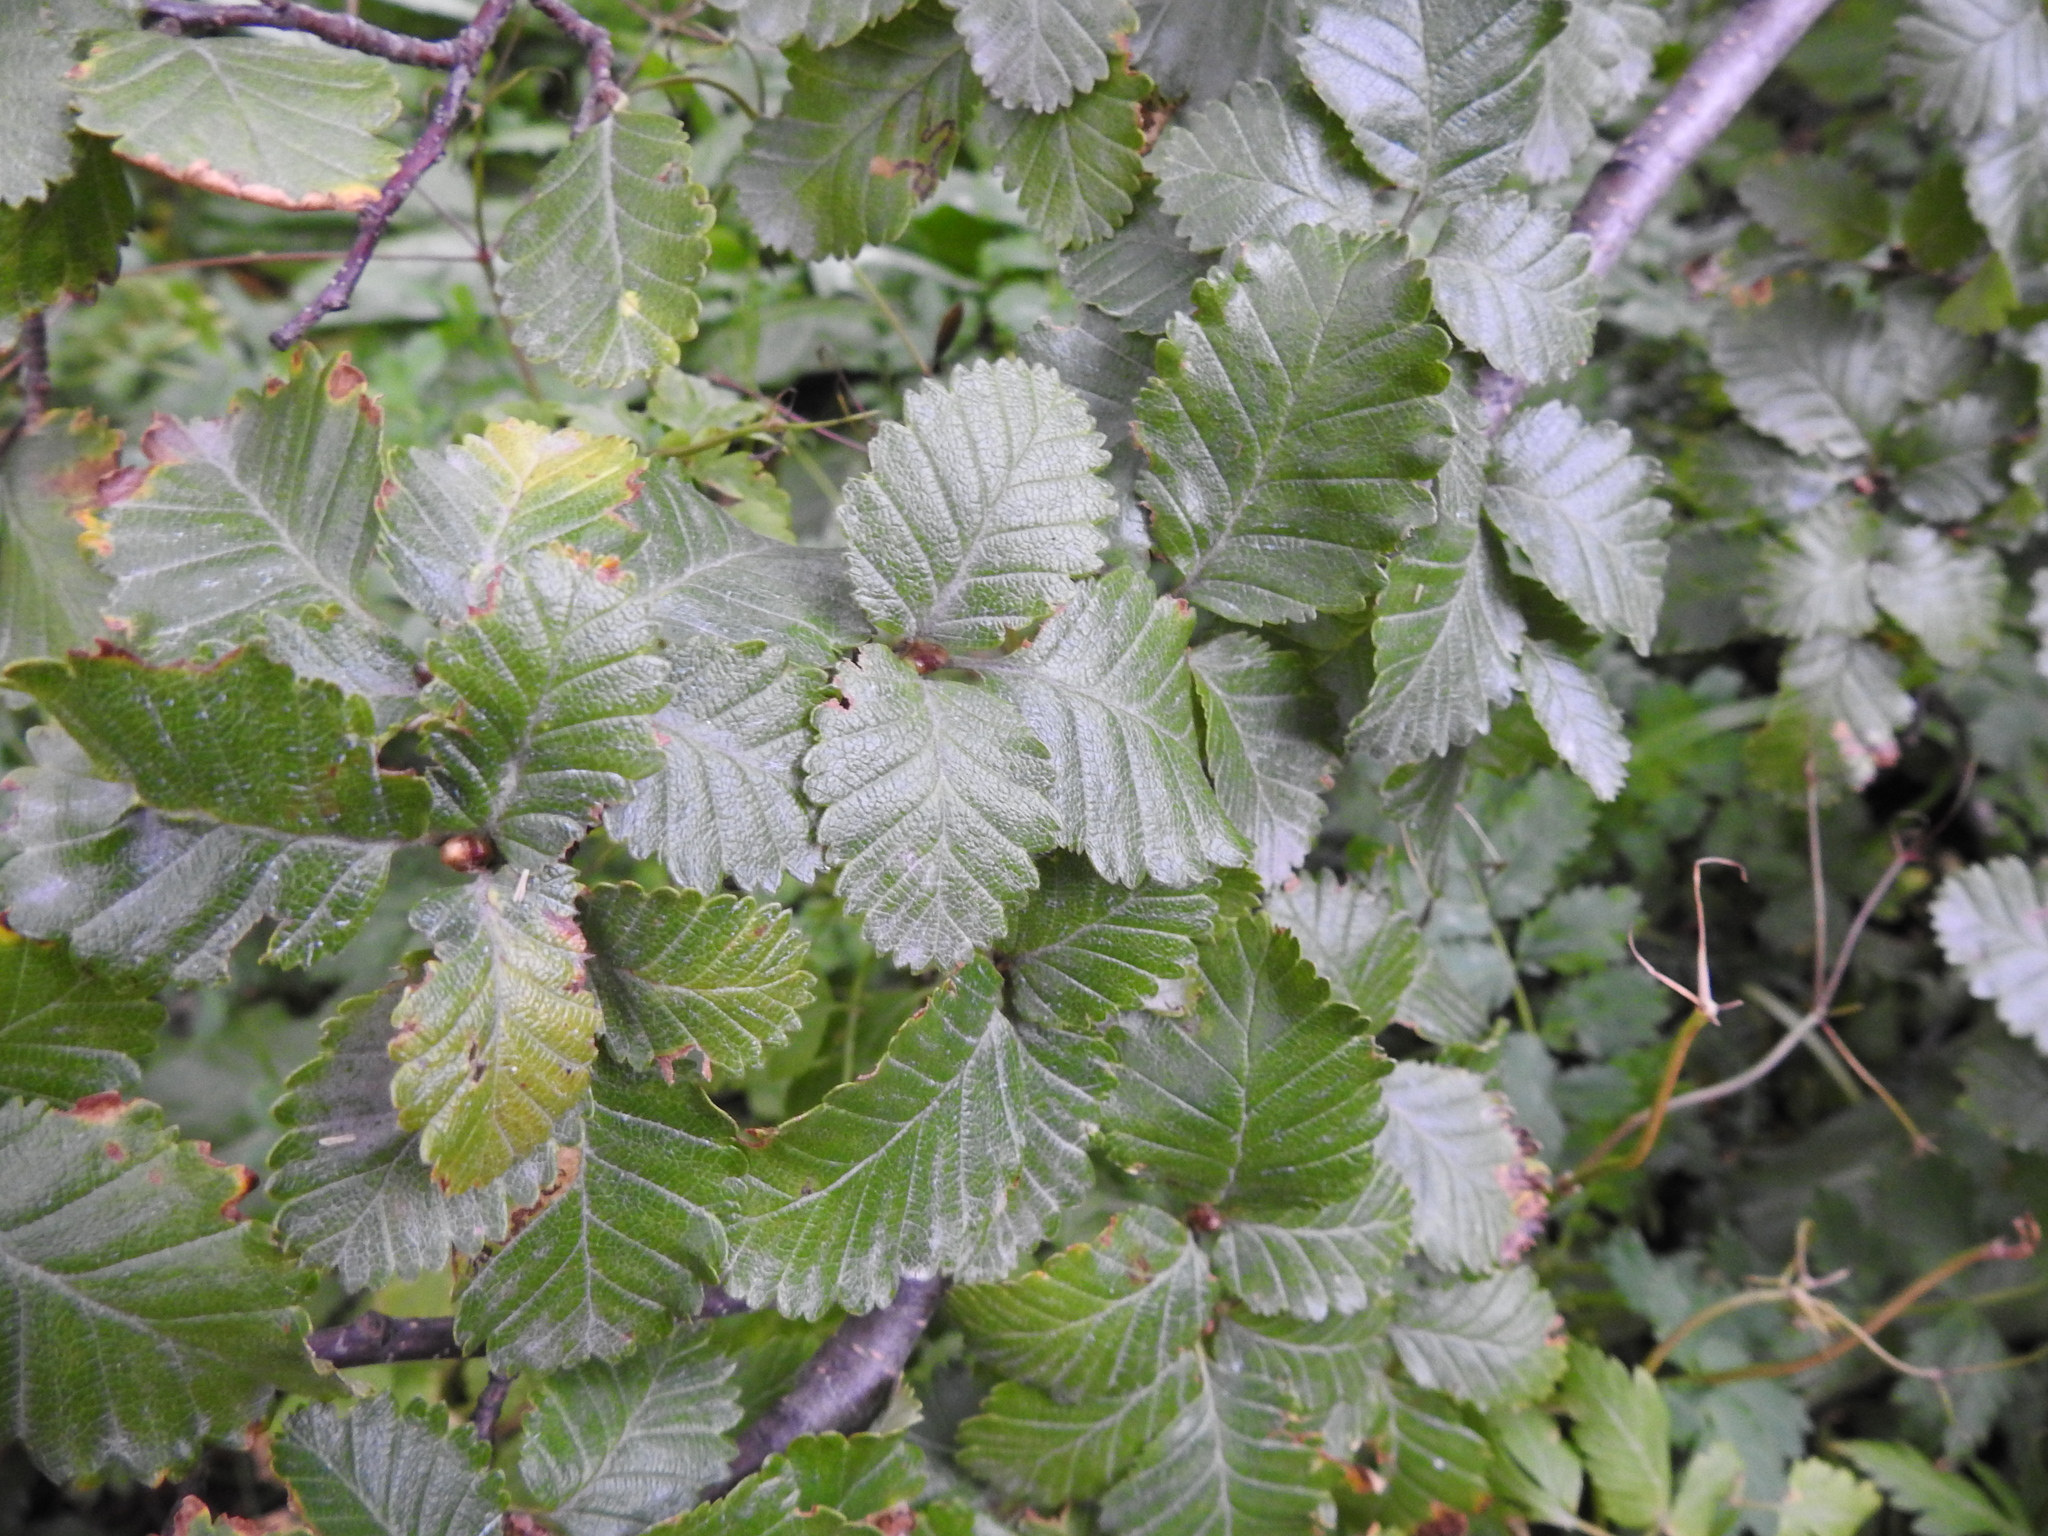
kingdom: Plantae
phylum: Tracheophyta
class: Magnoliopsida
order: Fagales
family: Nothofagaceae
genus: Nothofagus
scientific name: Nothofagus pumilio
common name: Lenga beech
